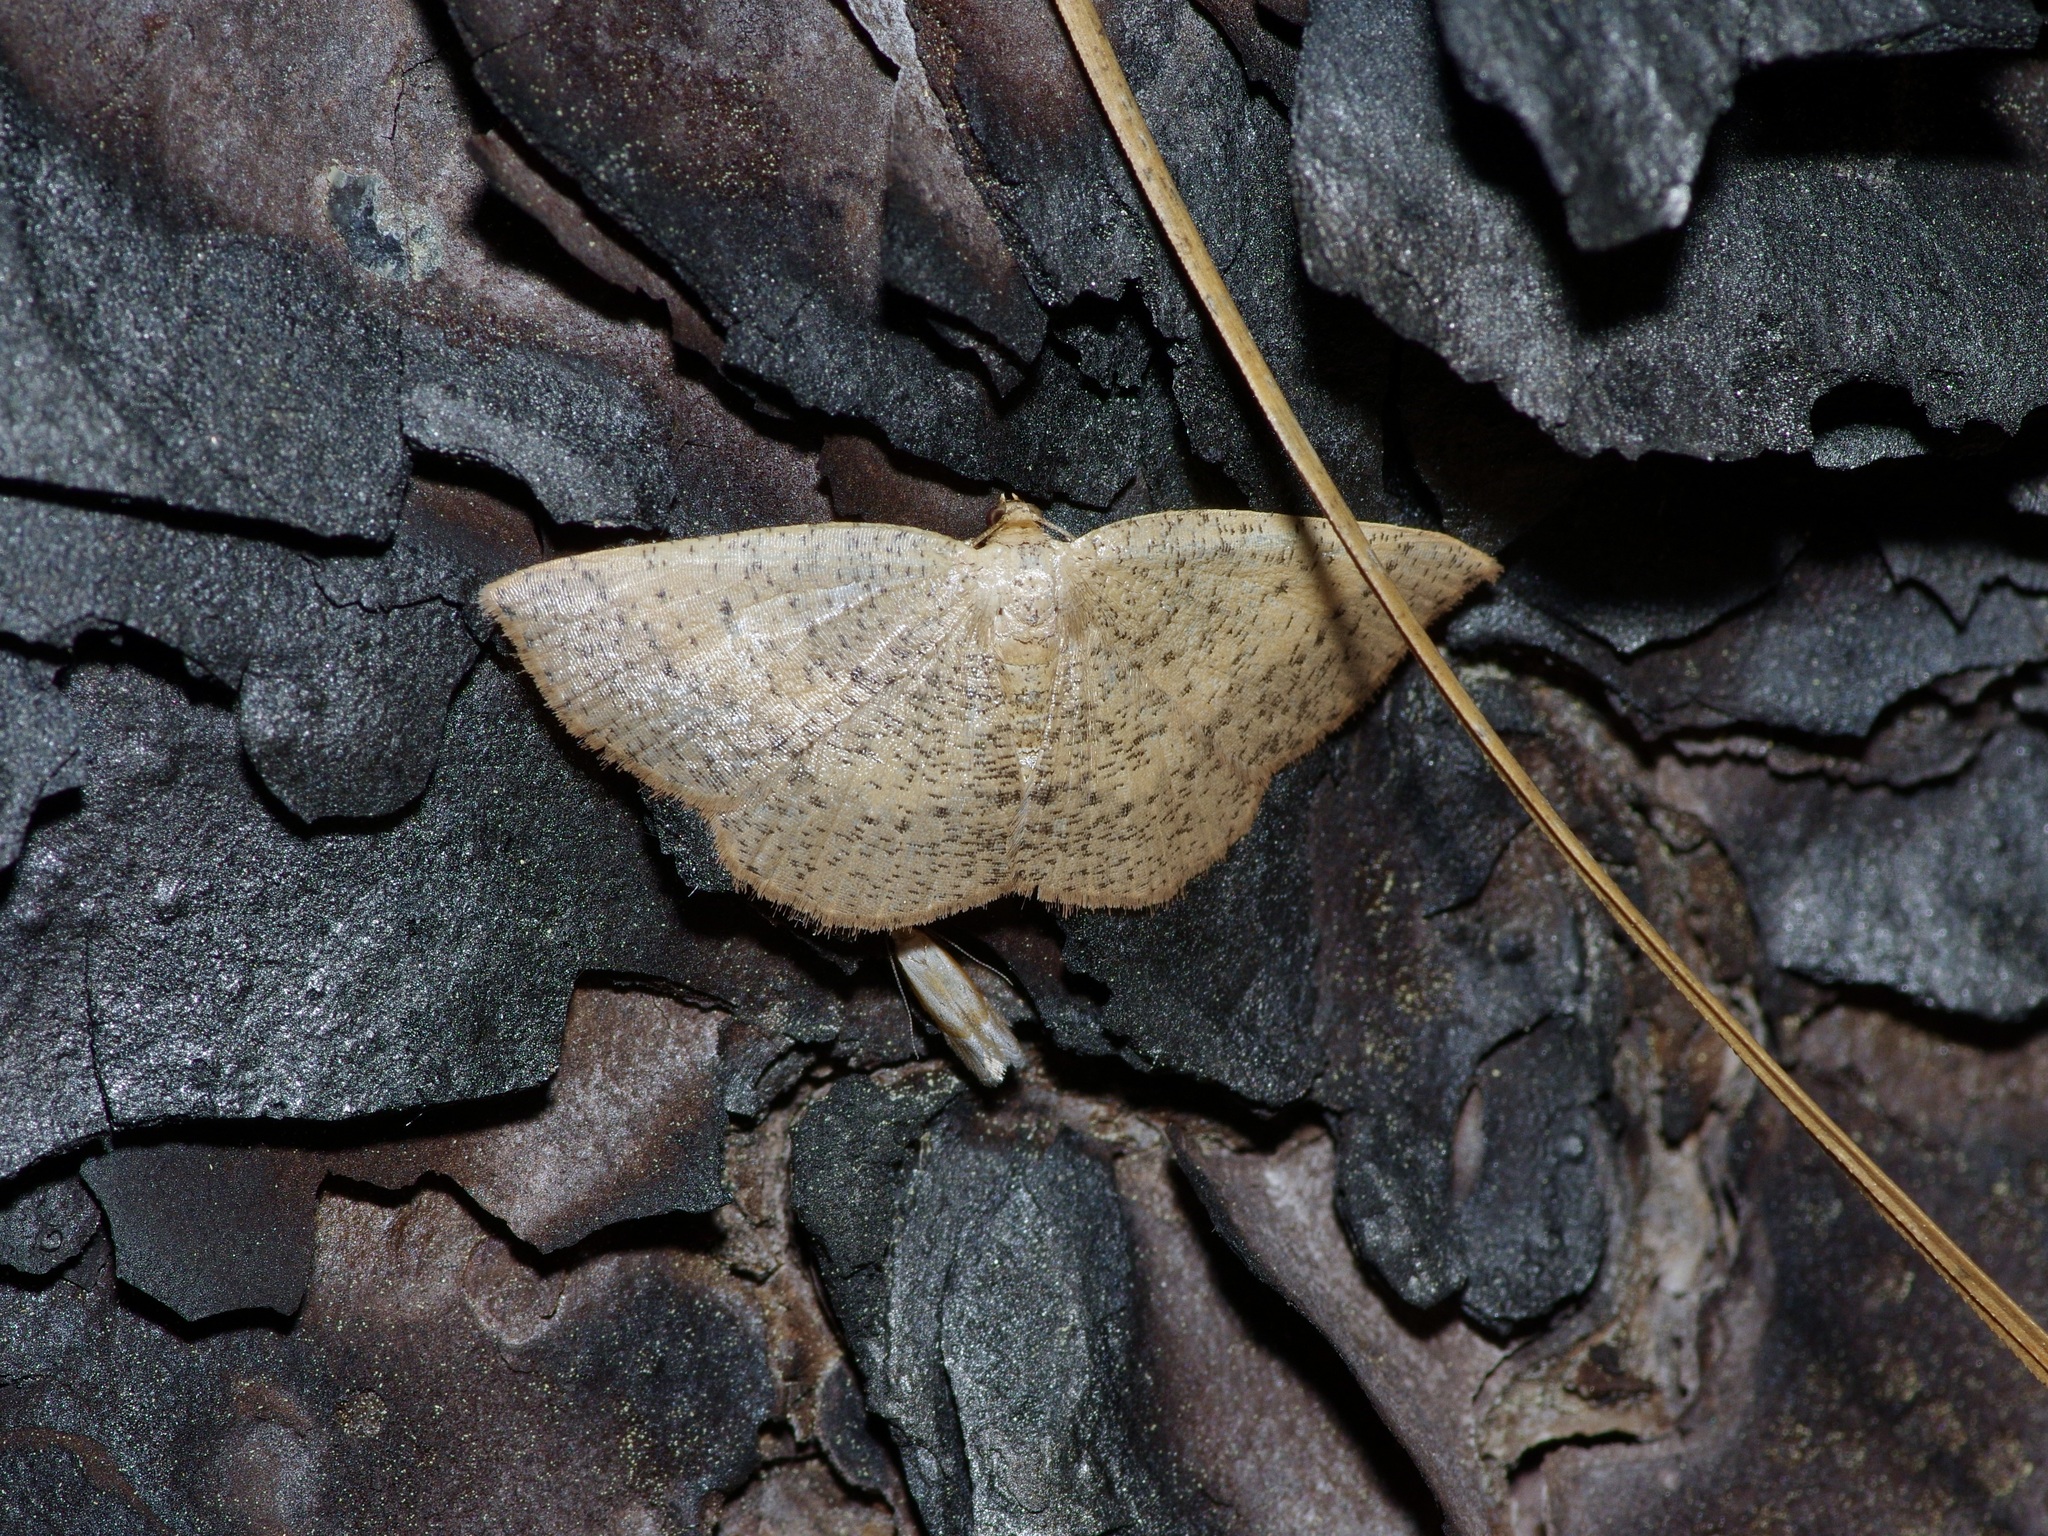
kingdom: Animalia
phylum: Arthropoda
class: Insecta
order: Lepidoptera
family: Geometridae
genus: Episemasia
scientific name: Episemasia solitaria
